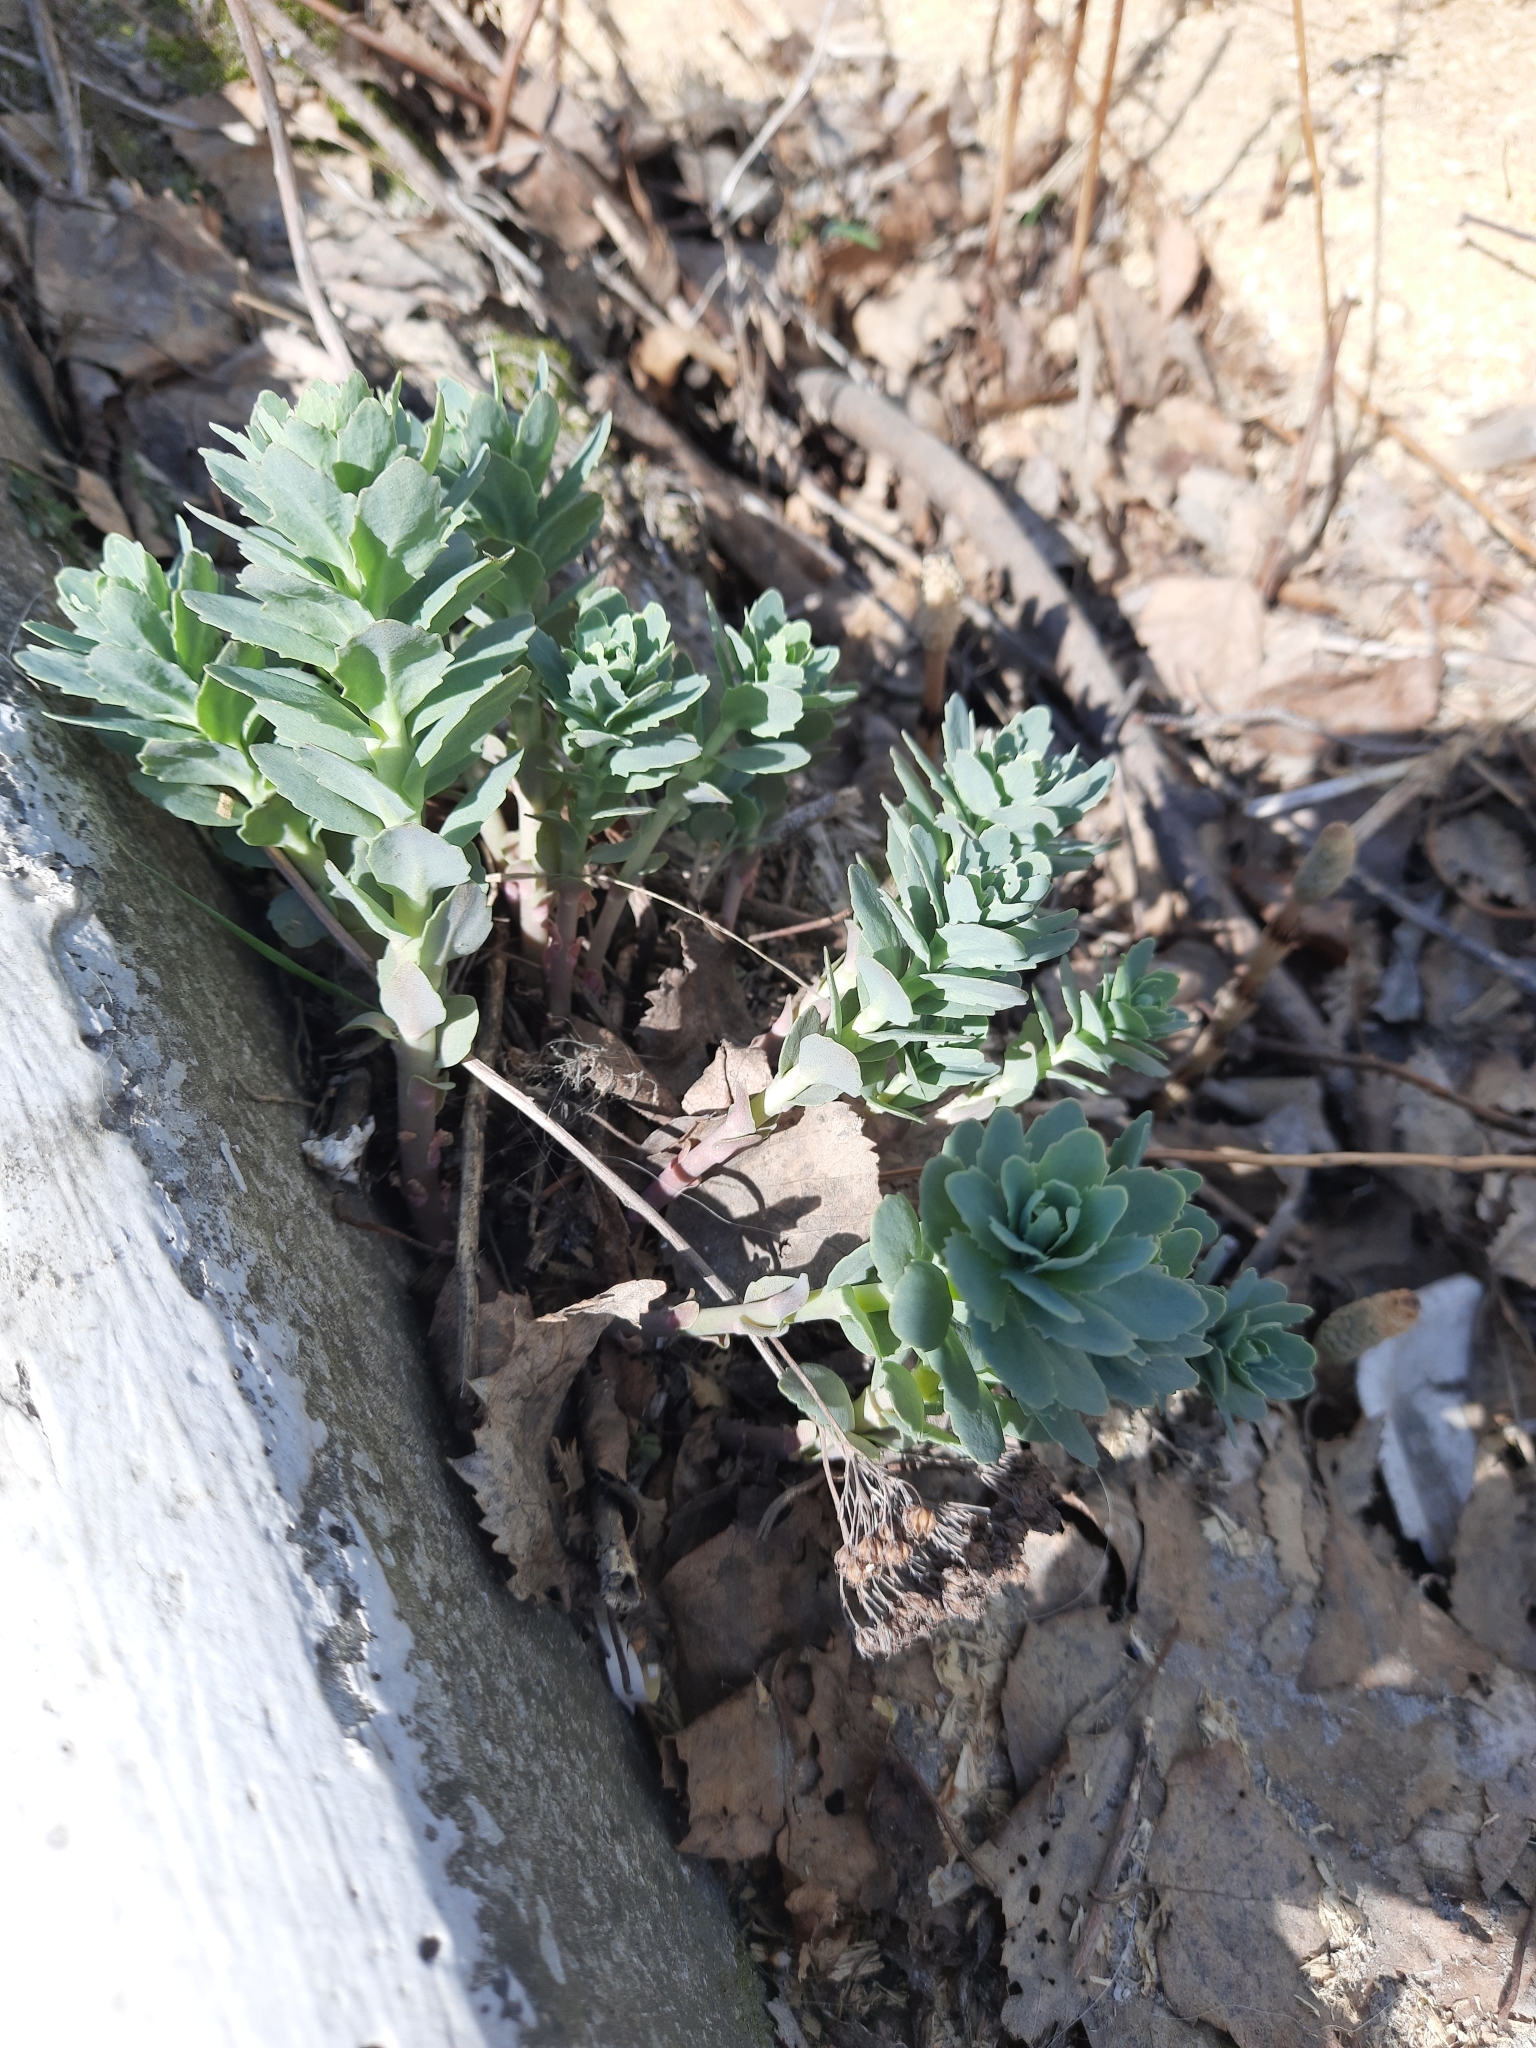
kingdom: Plantae
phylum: Tracheophyta
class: Magnoliopsida
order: Saxifragales
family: Crassulaceae
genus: Hylotelephium
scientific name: Hylotelephium telephium
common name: Live-forever
